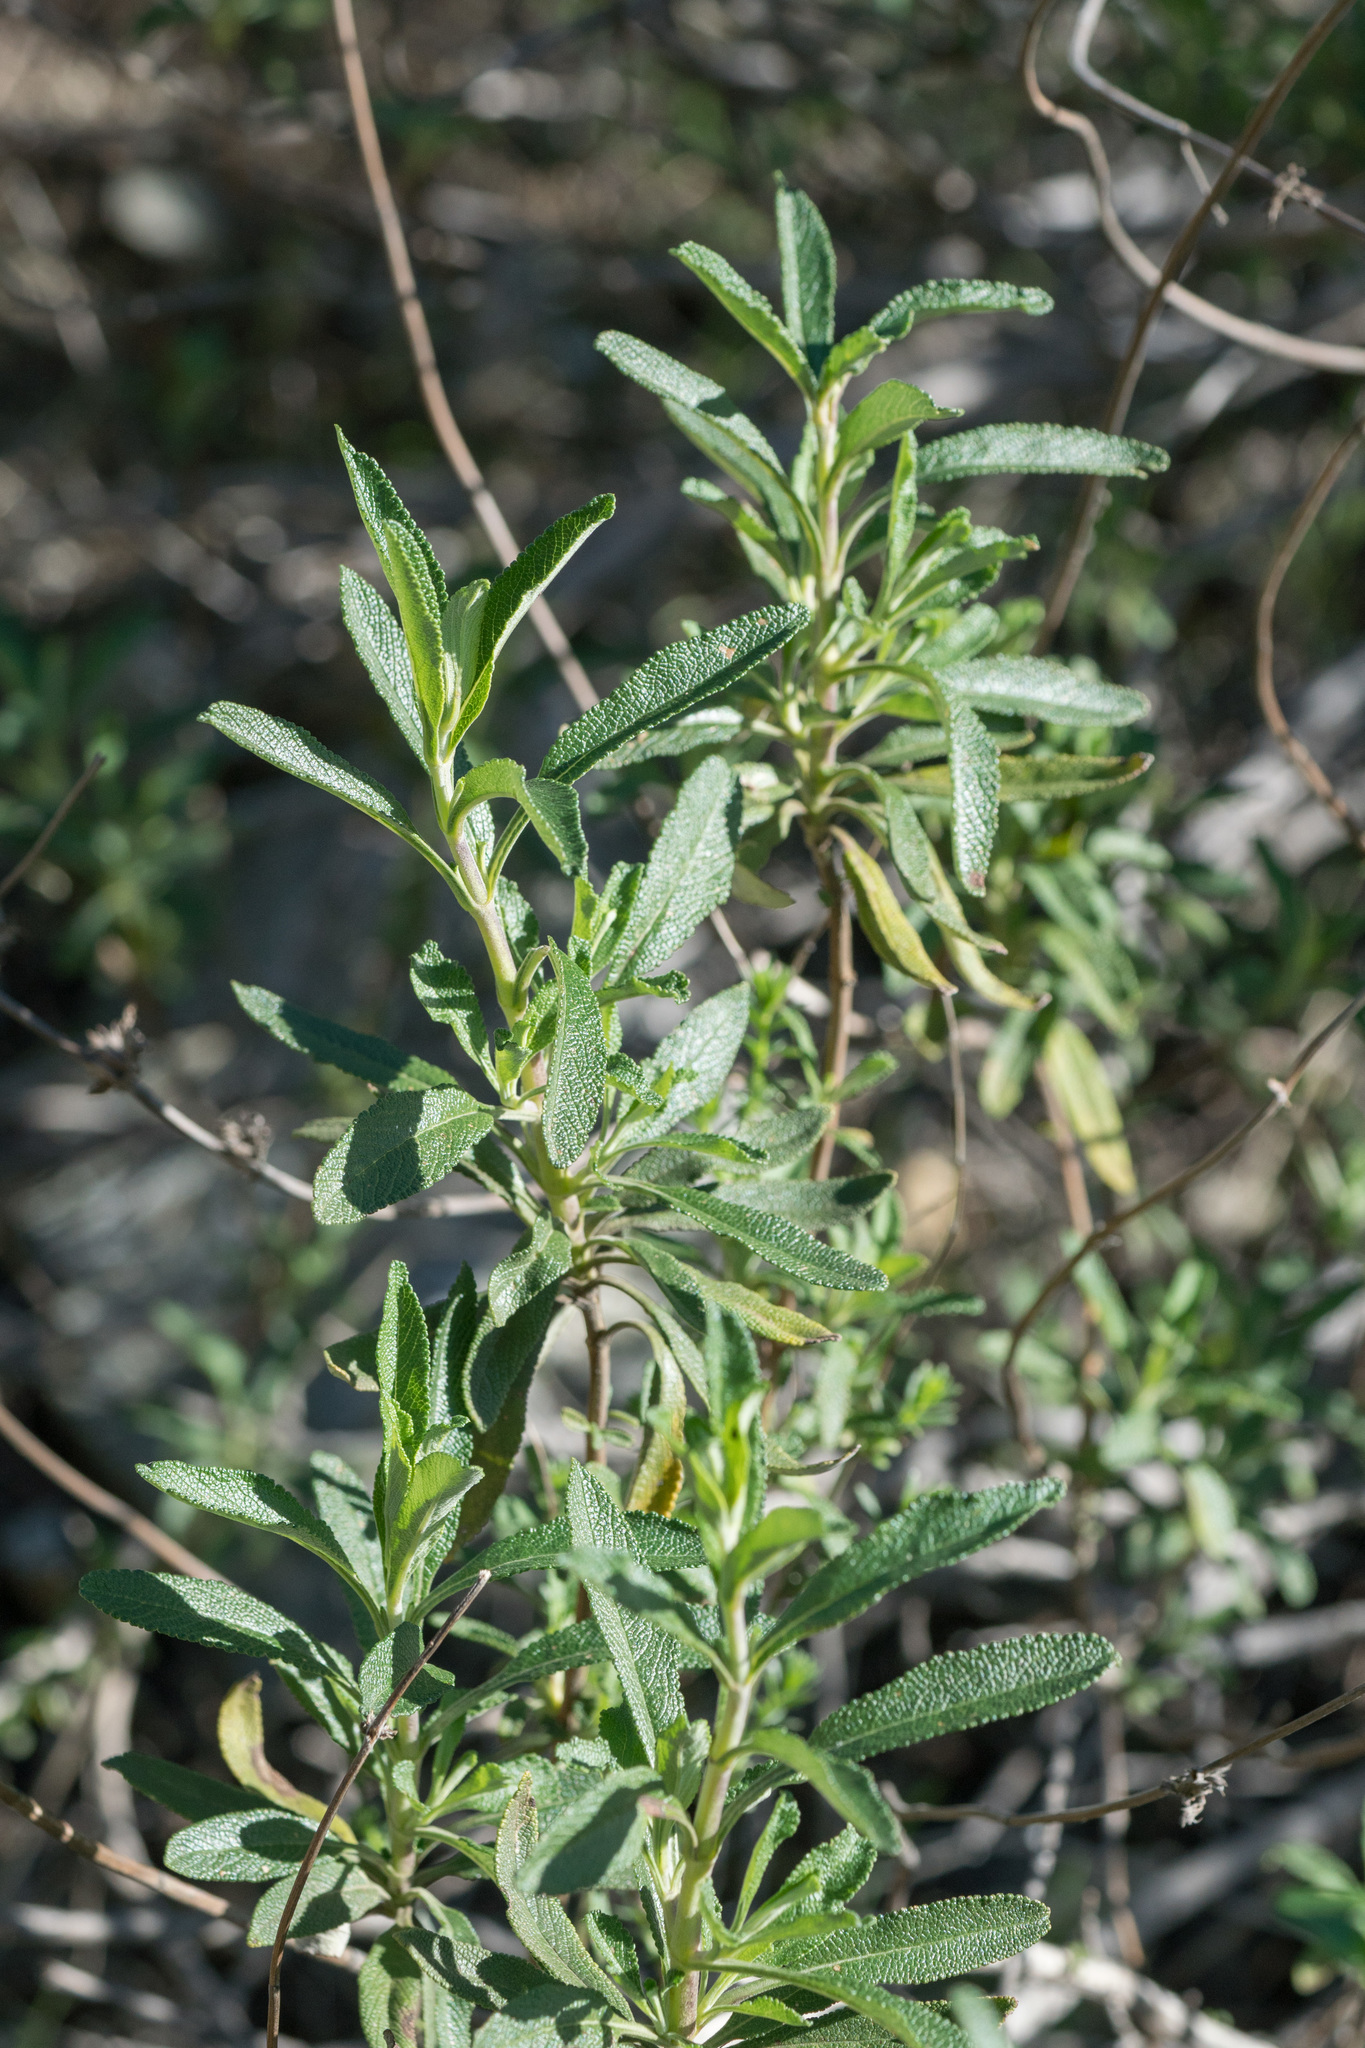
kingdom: Plantae
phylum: Tracheophyta
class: Magnoliopsida
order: Lamiales
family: Lamiaceae
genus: Salvia
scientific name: Salvia mellifera
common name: Black sage
